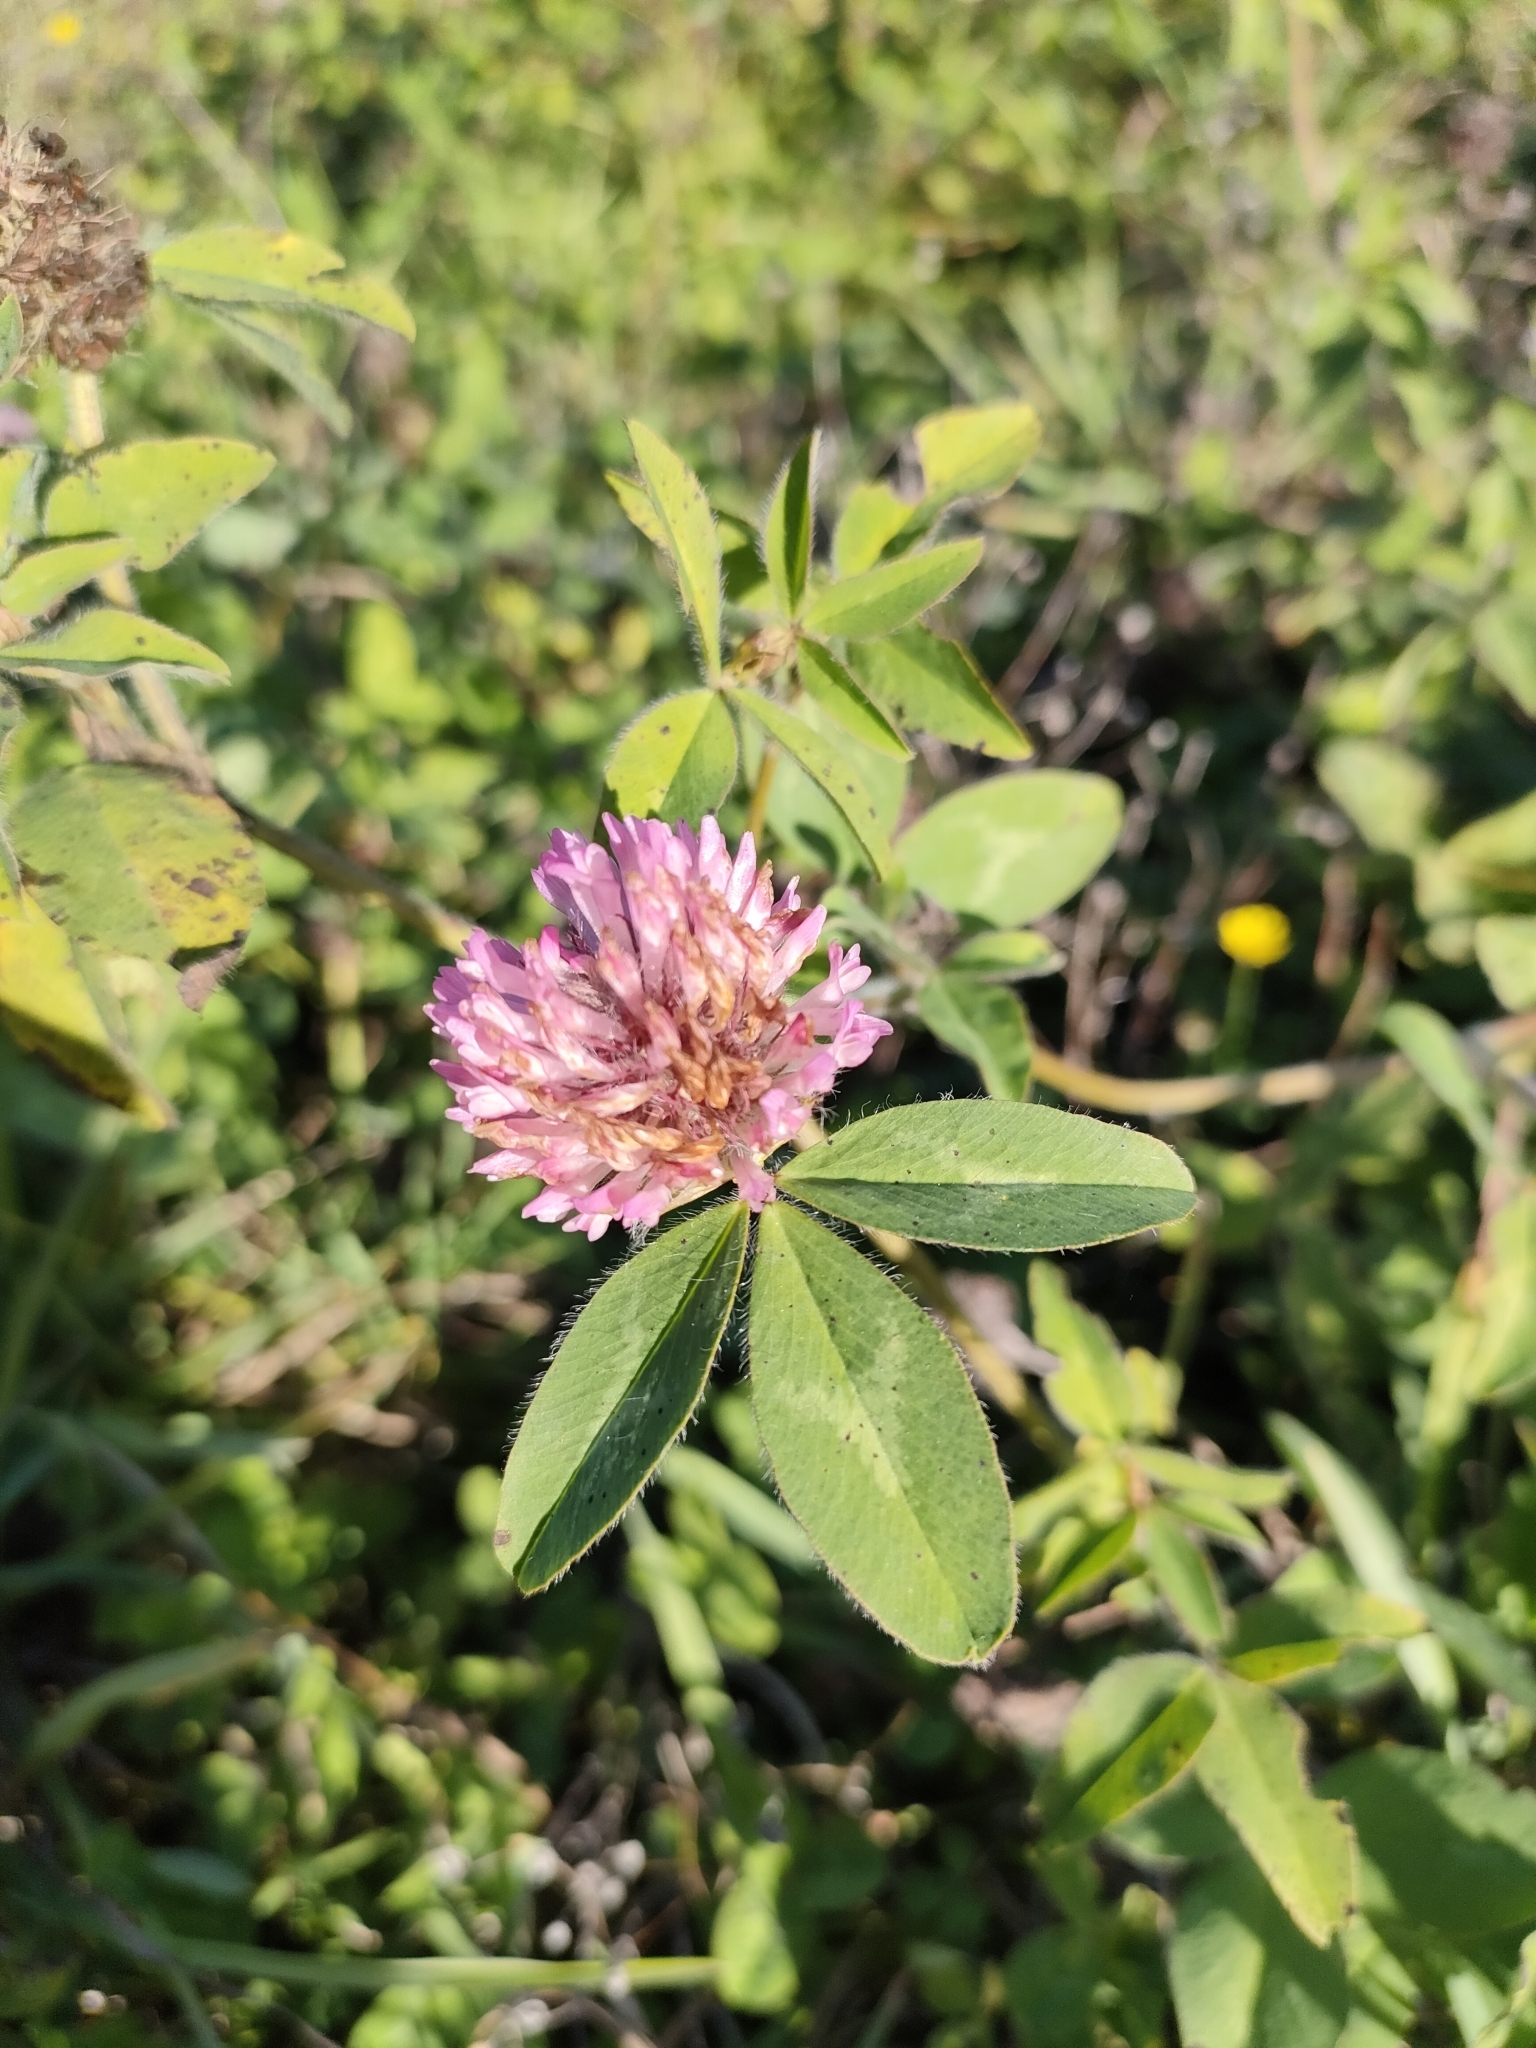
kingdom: Plantae
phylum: Tracheophyta
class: Magnoliopsida
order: Fabales
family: Fabaceae
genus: Trifolium
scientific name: Trifolium pratense
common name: Red clover
